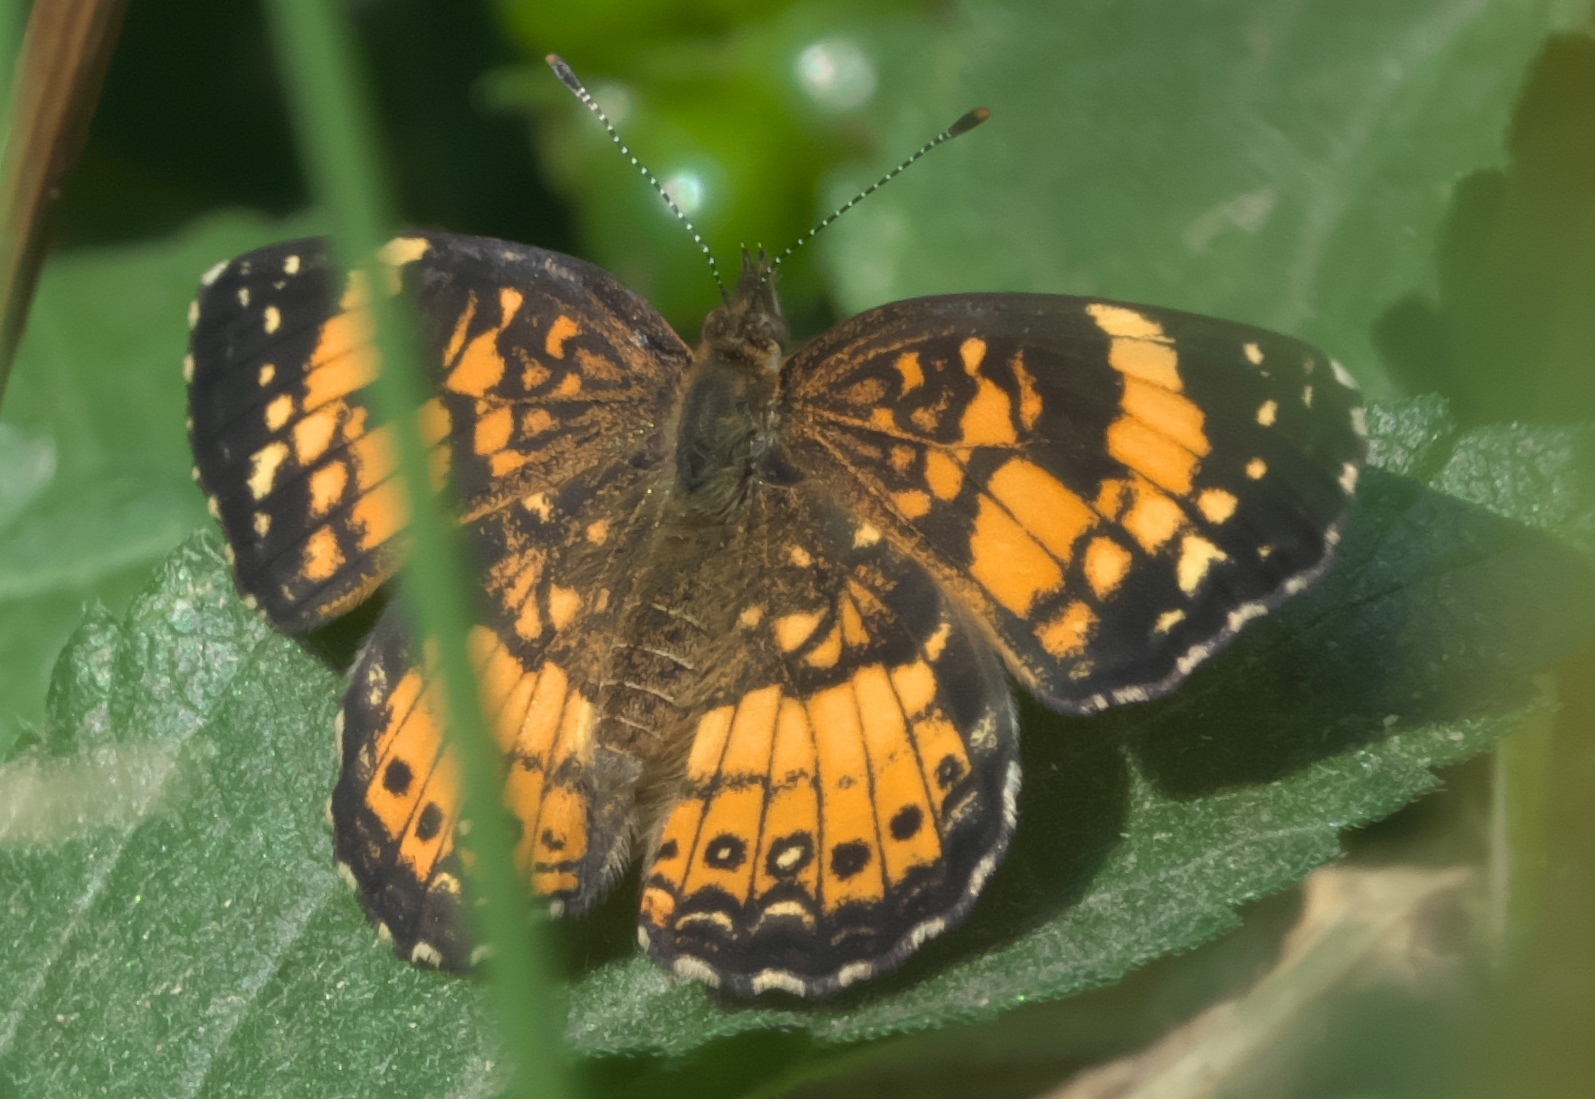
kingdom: Animalia
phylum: Arthropoda
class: Insecta
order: Lepidoptera
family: Nymphalidae
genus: Chlosyne
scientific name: Chlosyne nycteis
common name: Silvery checkerspot
